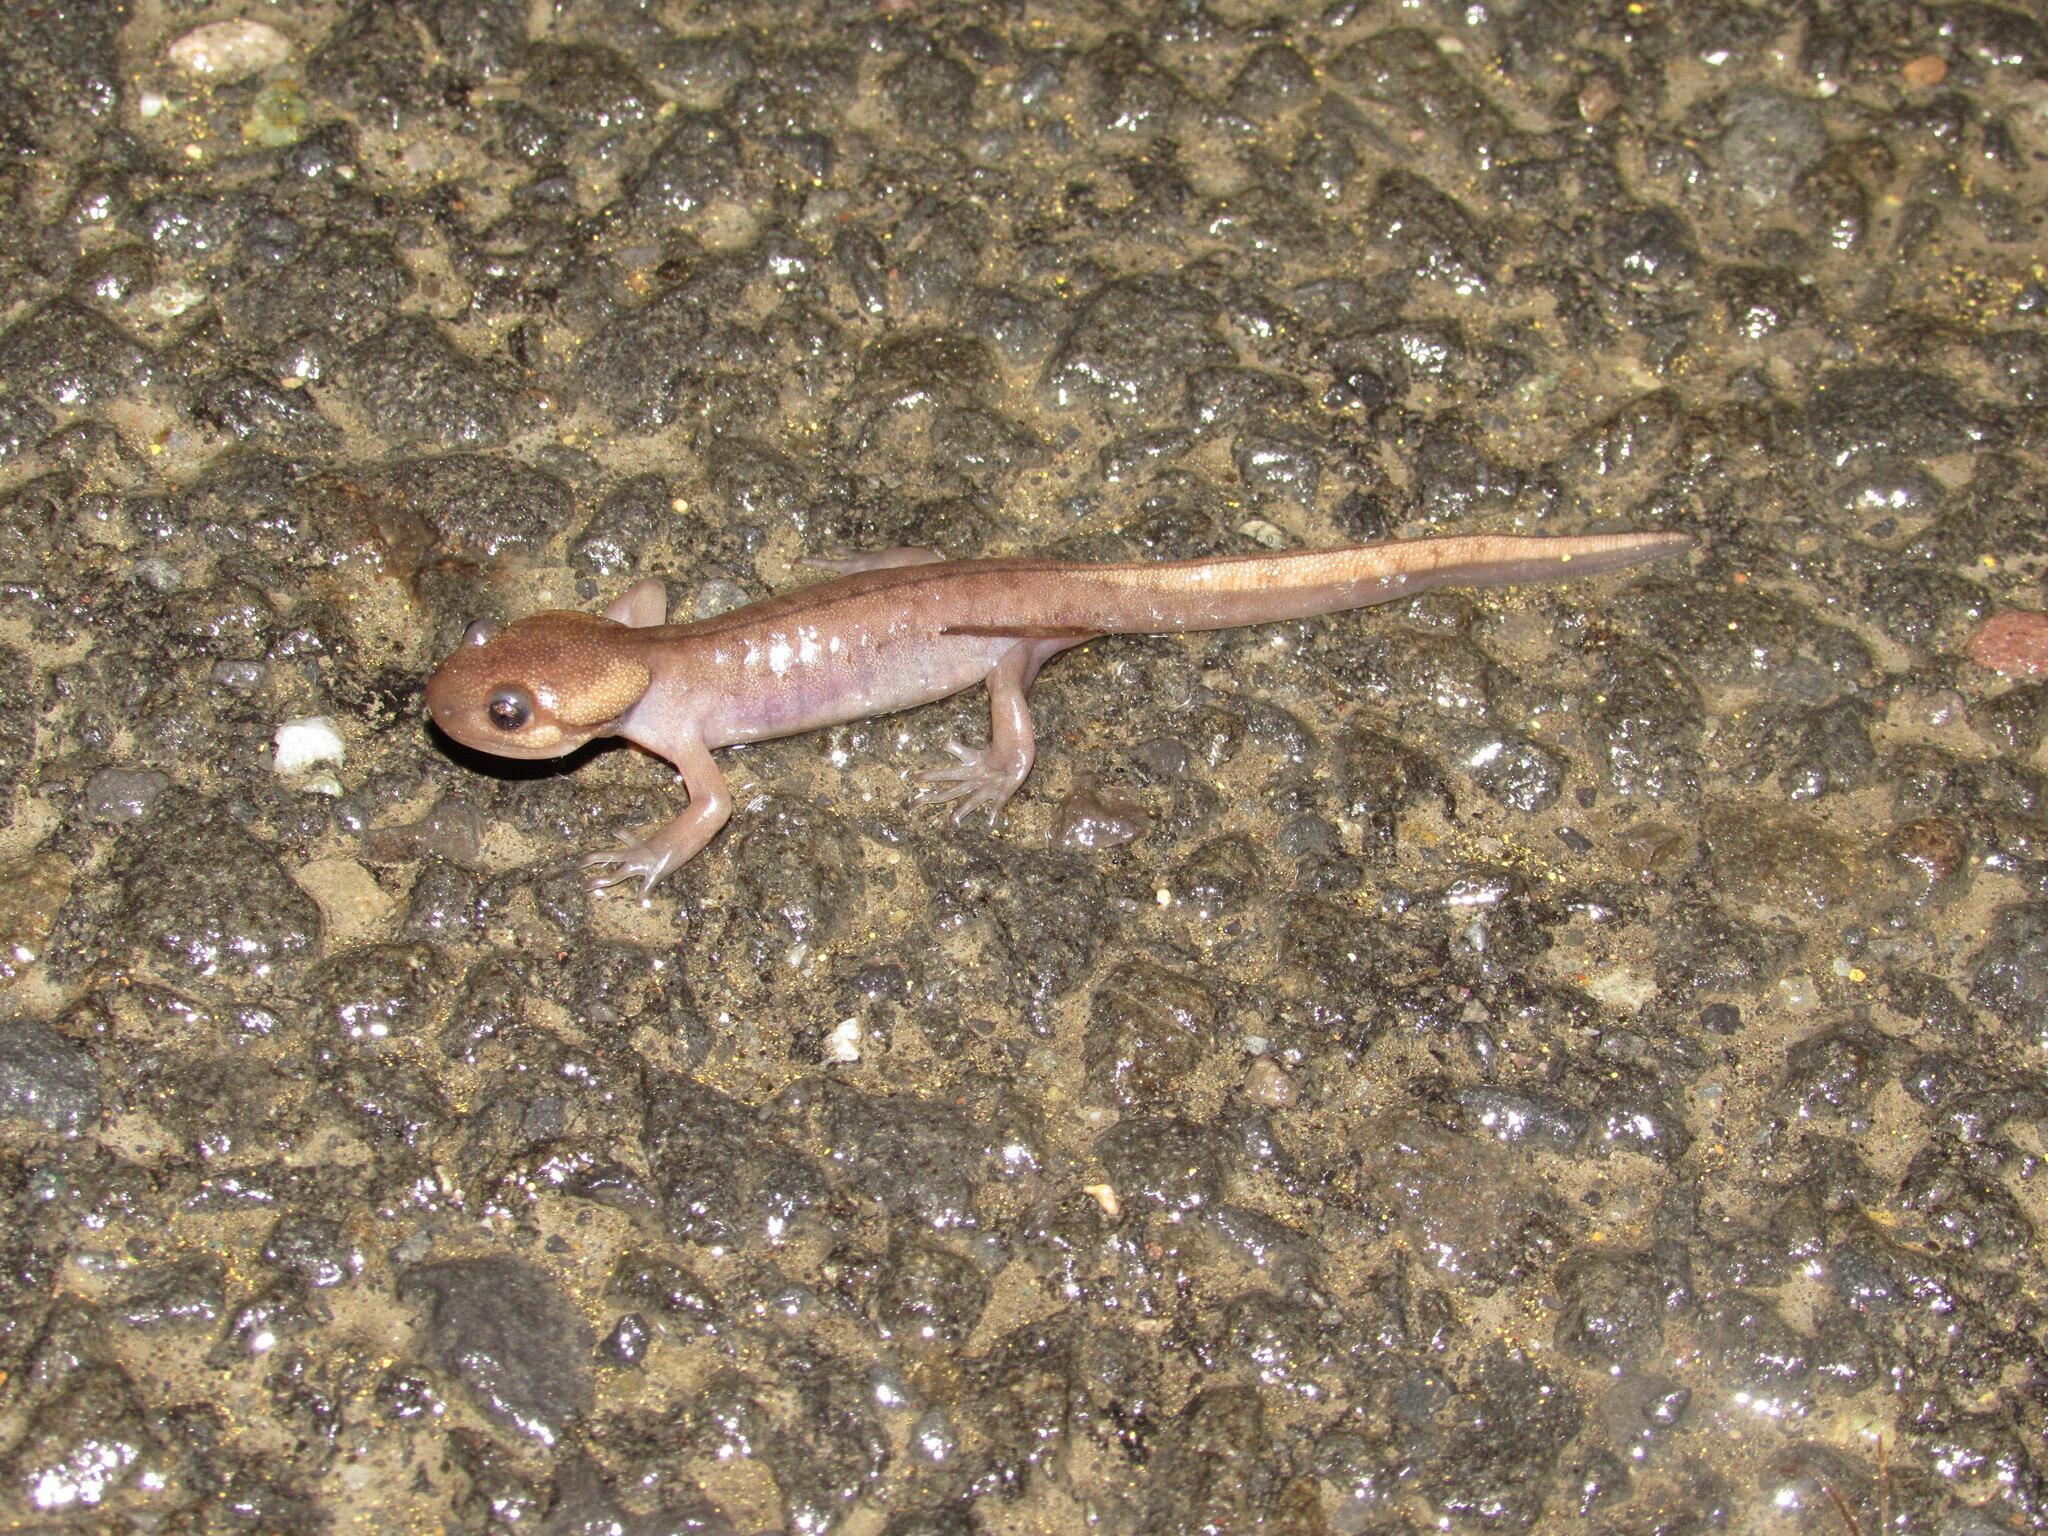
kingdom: Animalia
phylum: Chordata
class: Amphibia
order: Caudata
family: Ambystomatidae
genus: Ambystoma
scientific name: Ambystoma gracile
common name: Northwestern salamander
